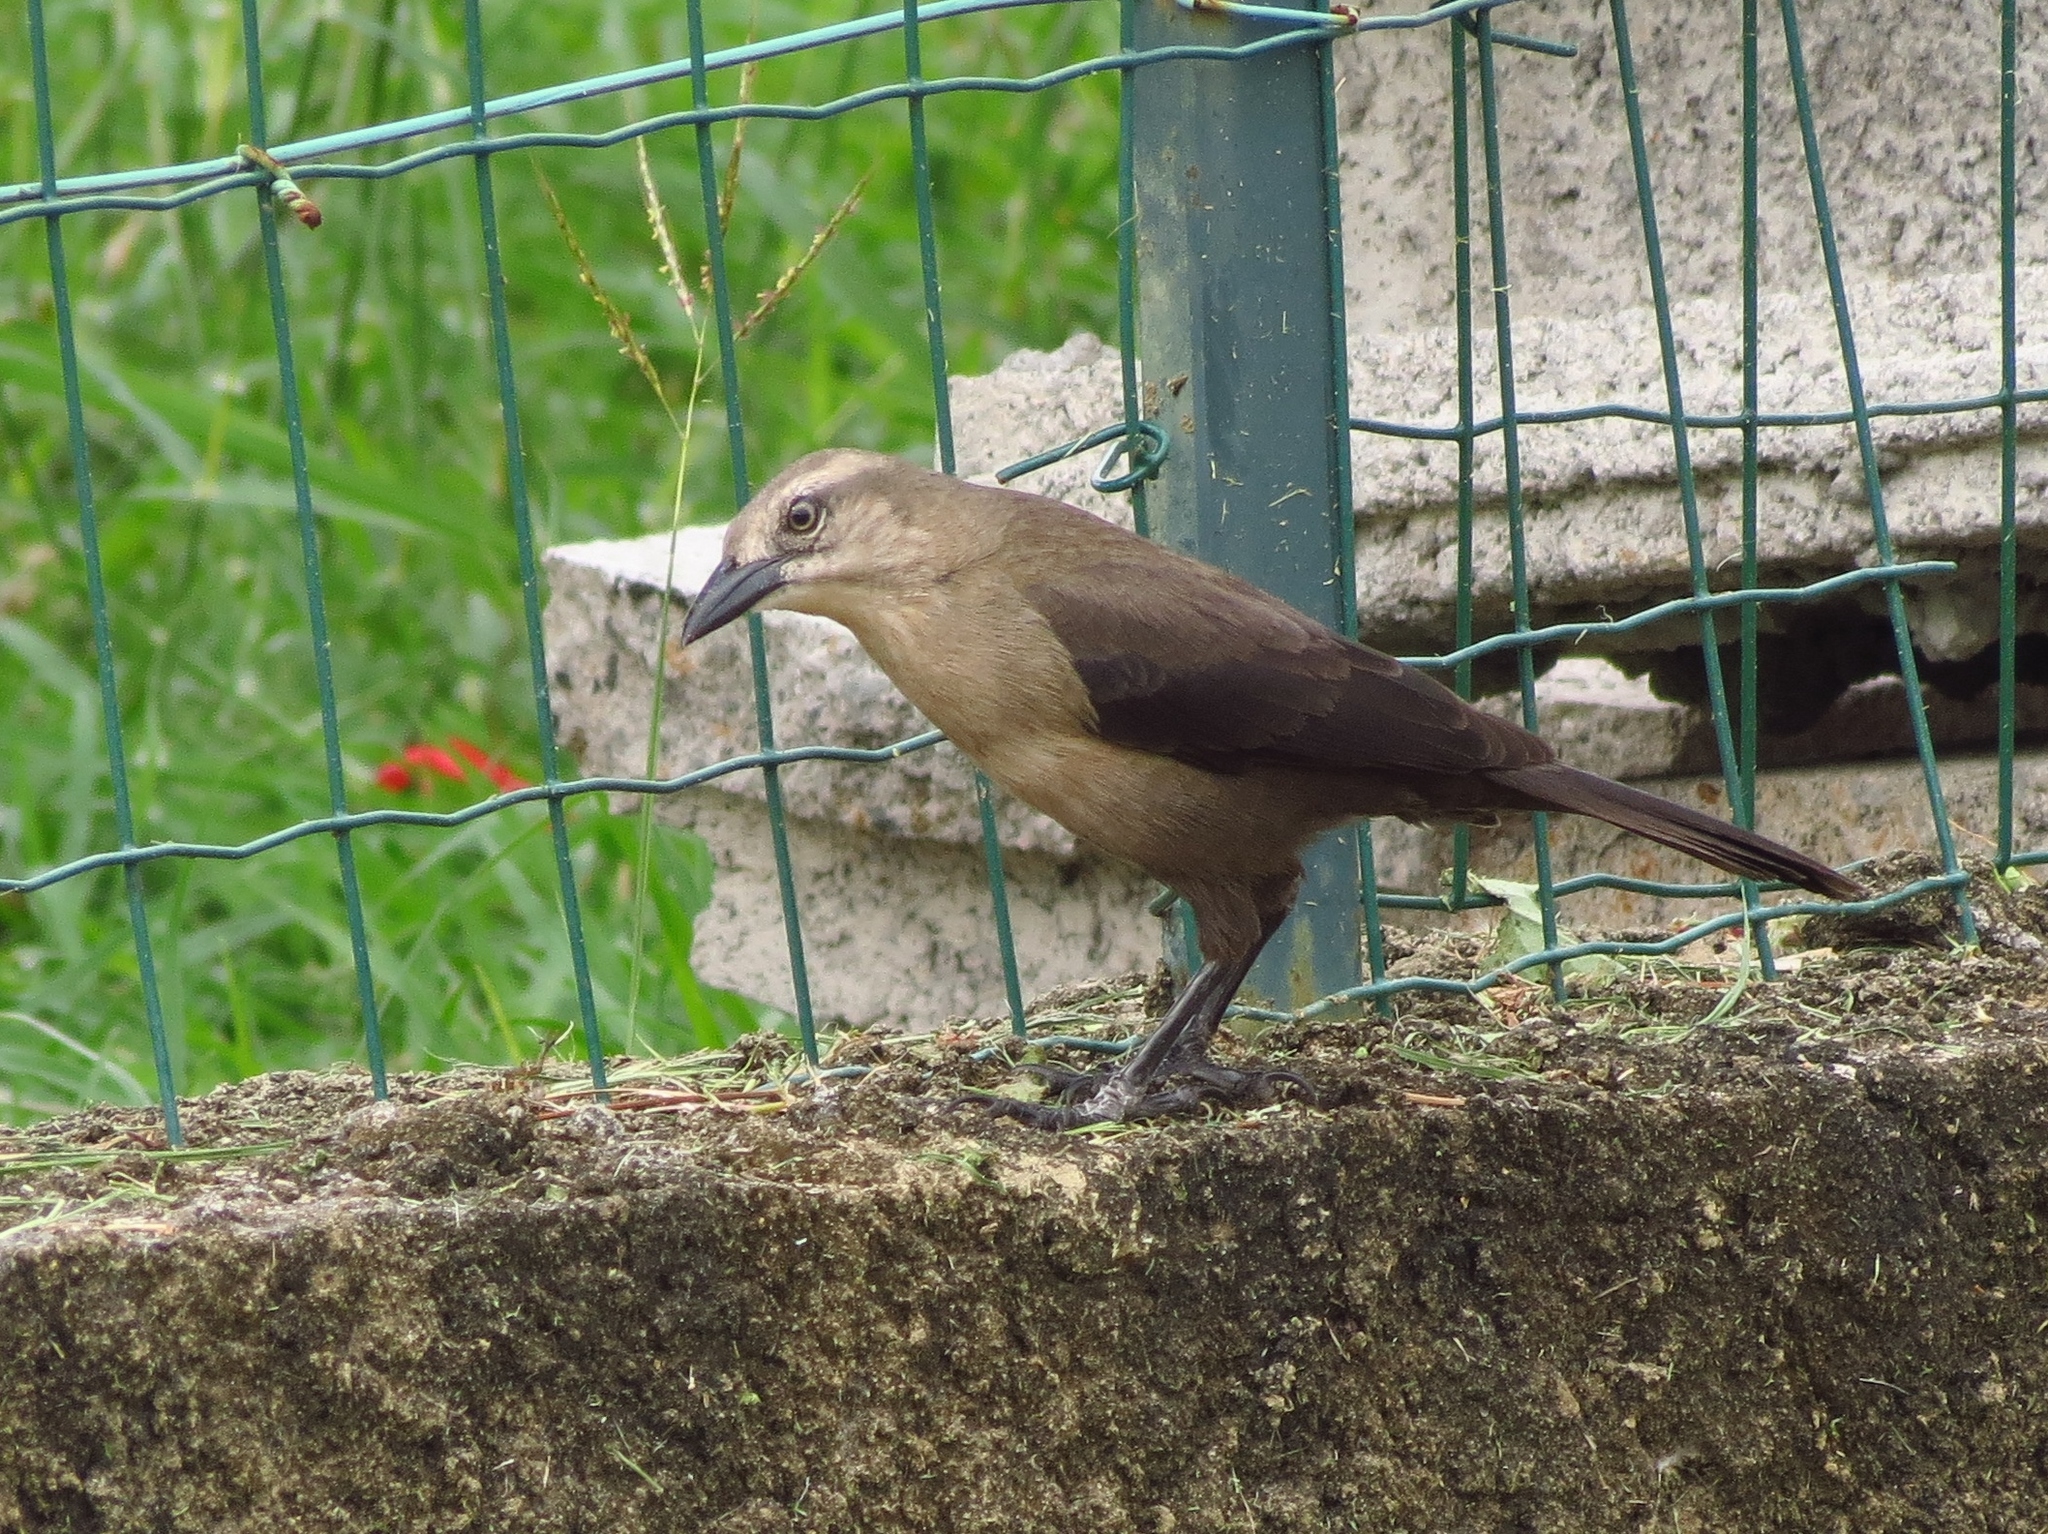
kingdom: Animalia
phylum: Chordata
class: Aves
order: Passeriformes
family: Icteridae
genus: Quiscalus
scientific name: Quiscalus lugubris
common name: Carib grackle
